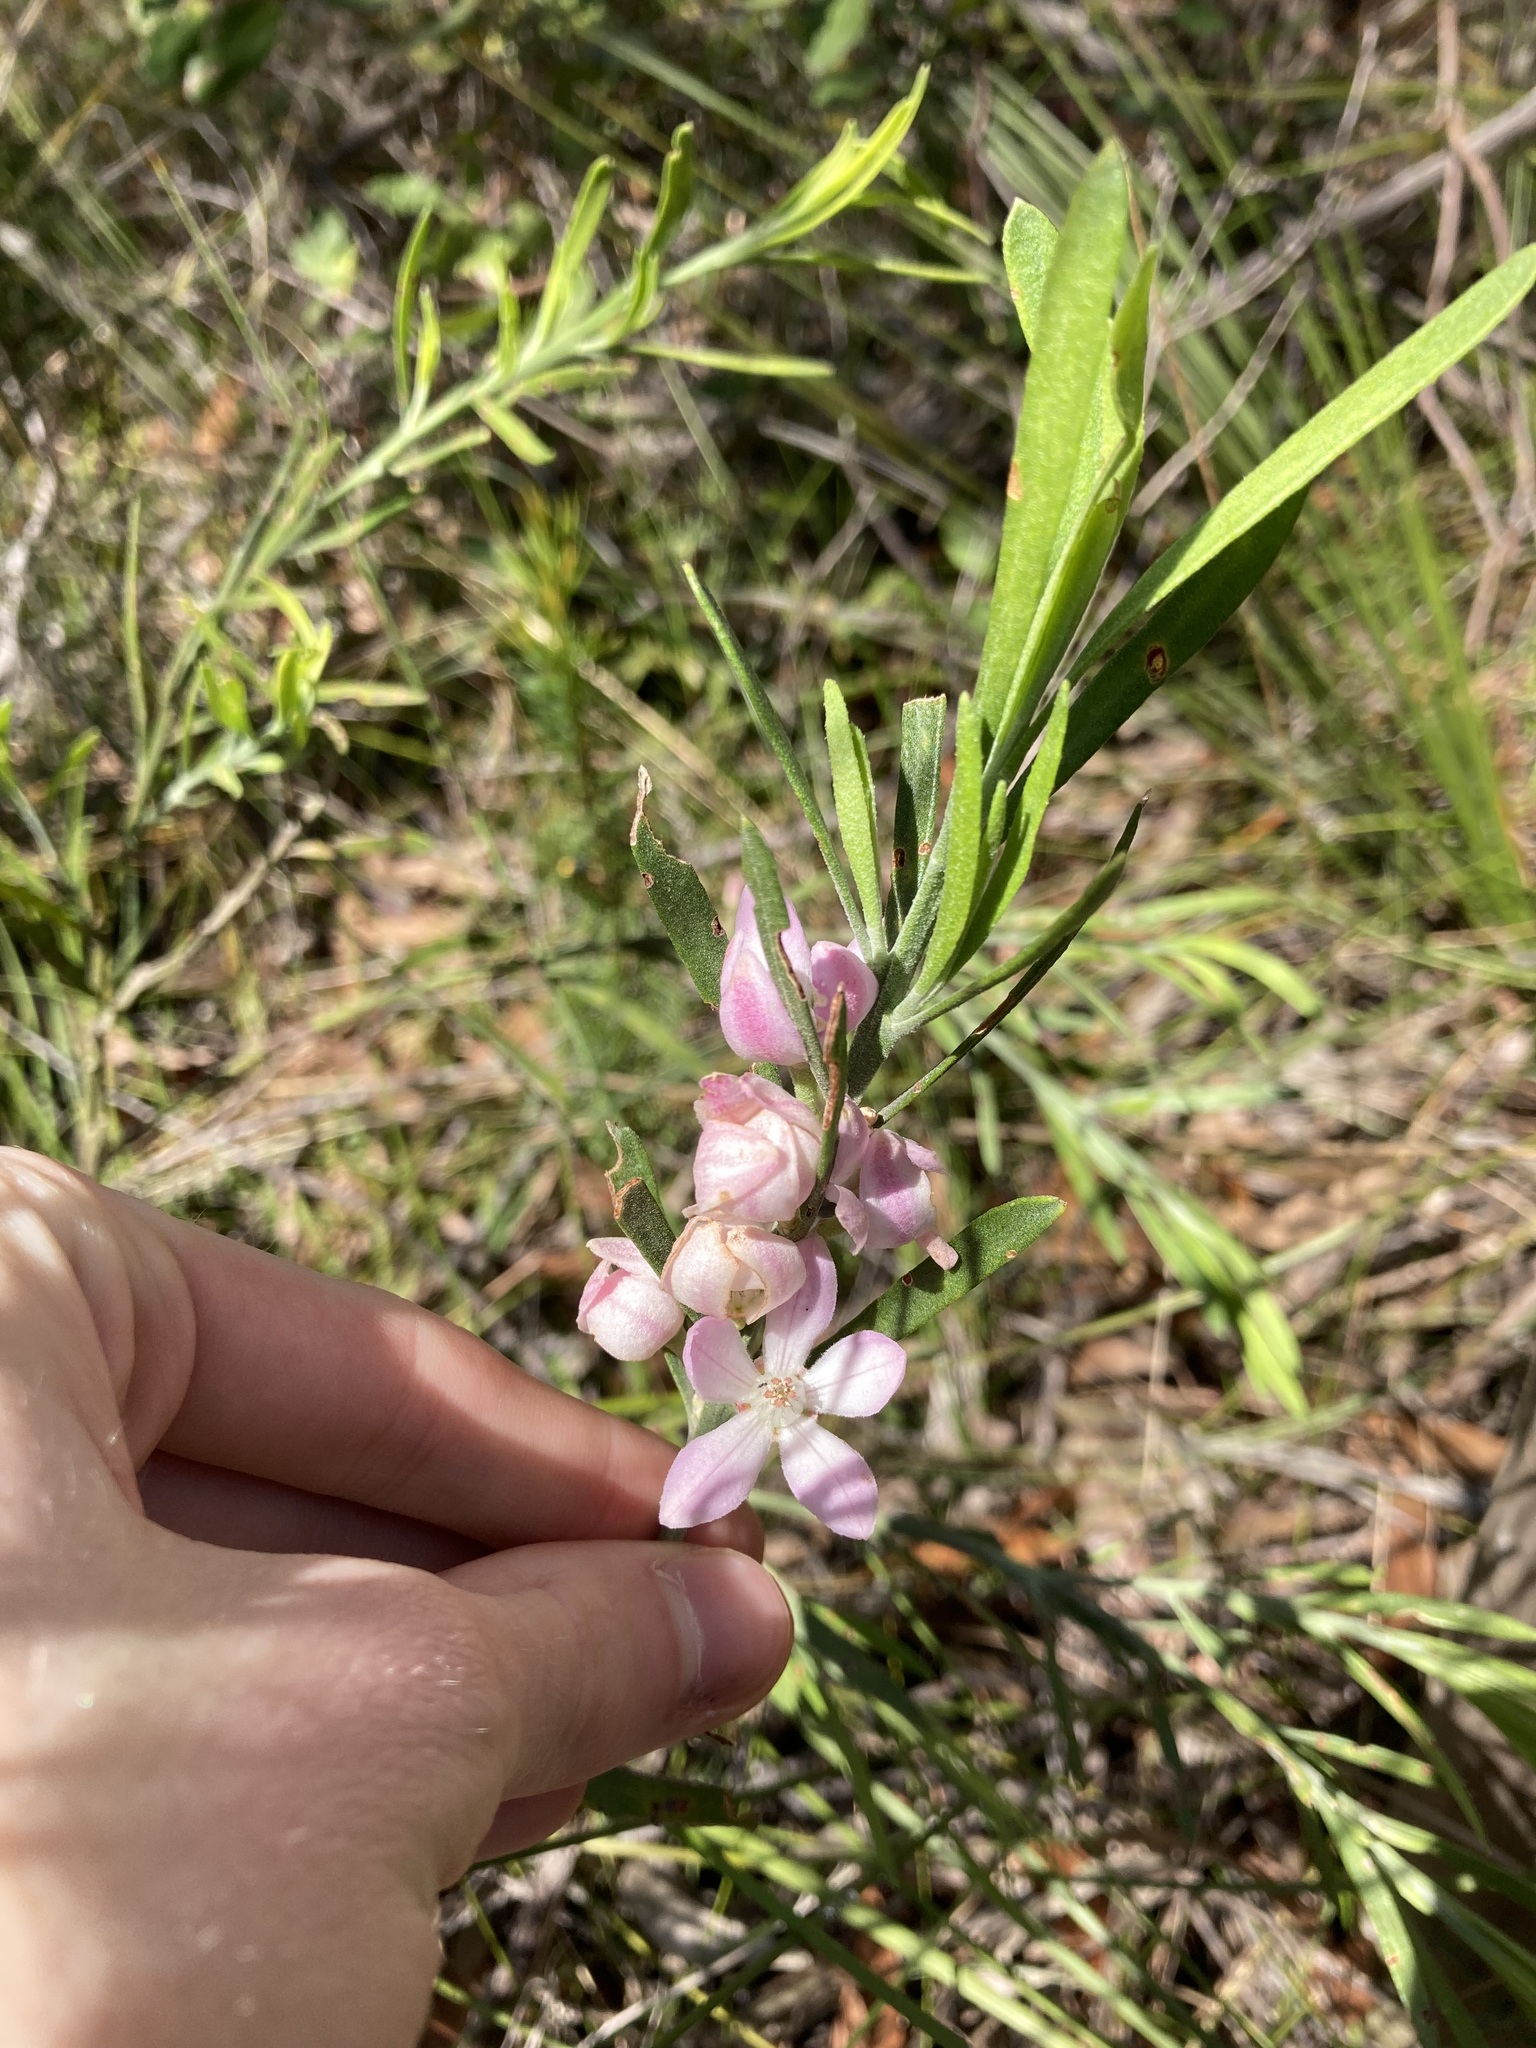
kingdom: Plantae
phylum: Tracheophyta
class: Magnoliopsida
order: Sapindales
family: Rutaceae
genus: Eriostemon
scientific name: Eriostemon australasius
